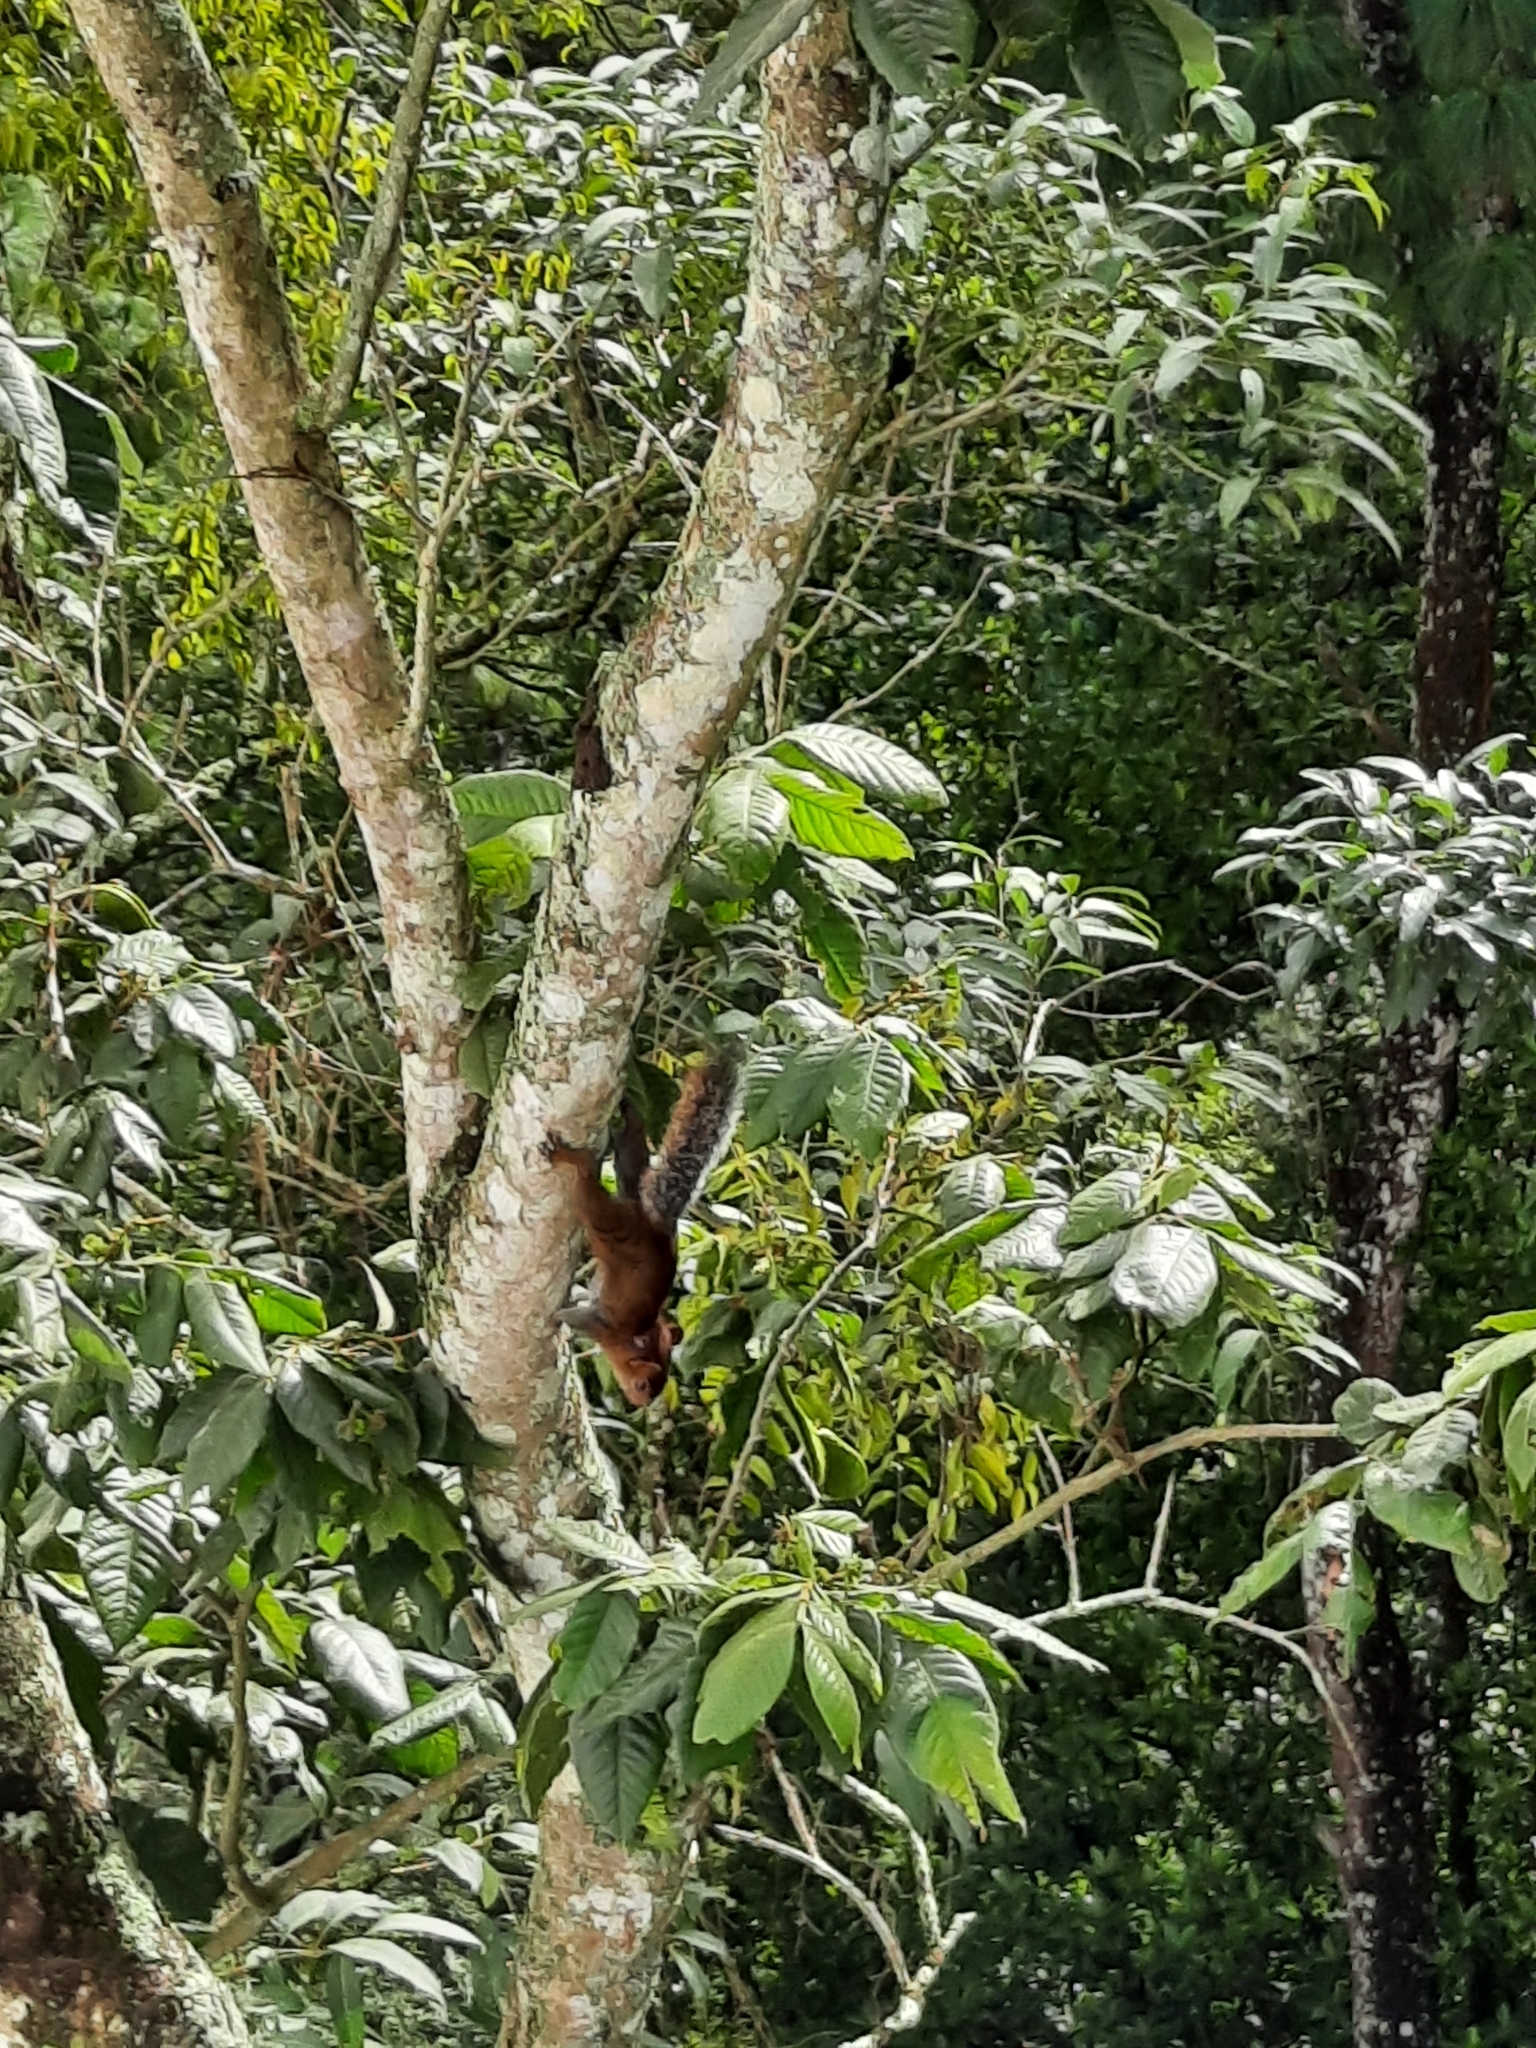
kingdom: Animalia
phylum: Chordata
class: Mammalia
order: Rodentia
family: Sciuridae
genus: Sciurus
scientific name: Sciurus deppei
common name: Deppe's squirrel
